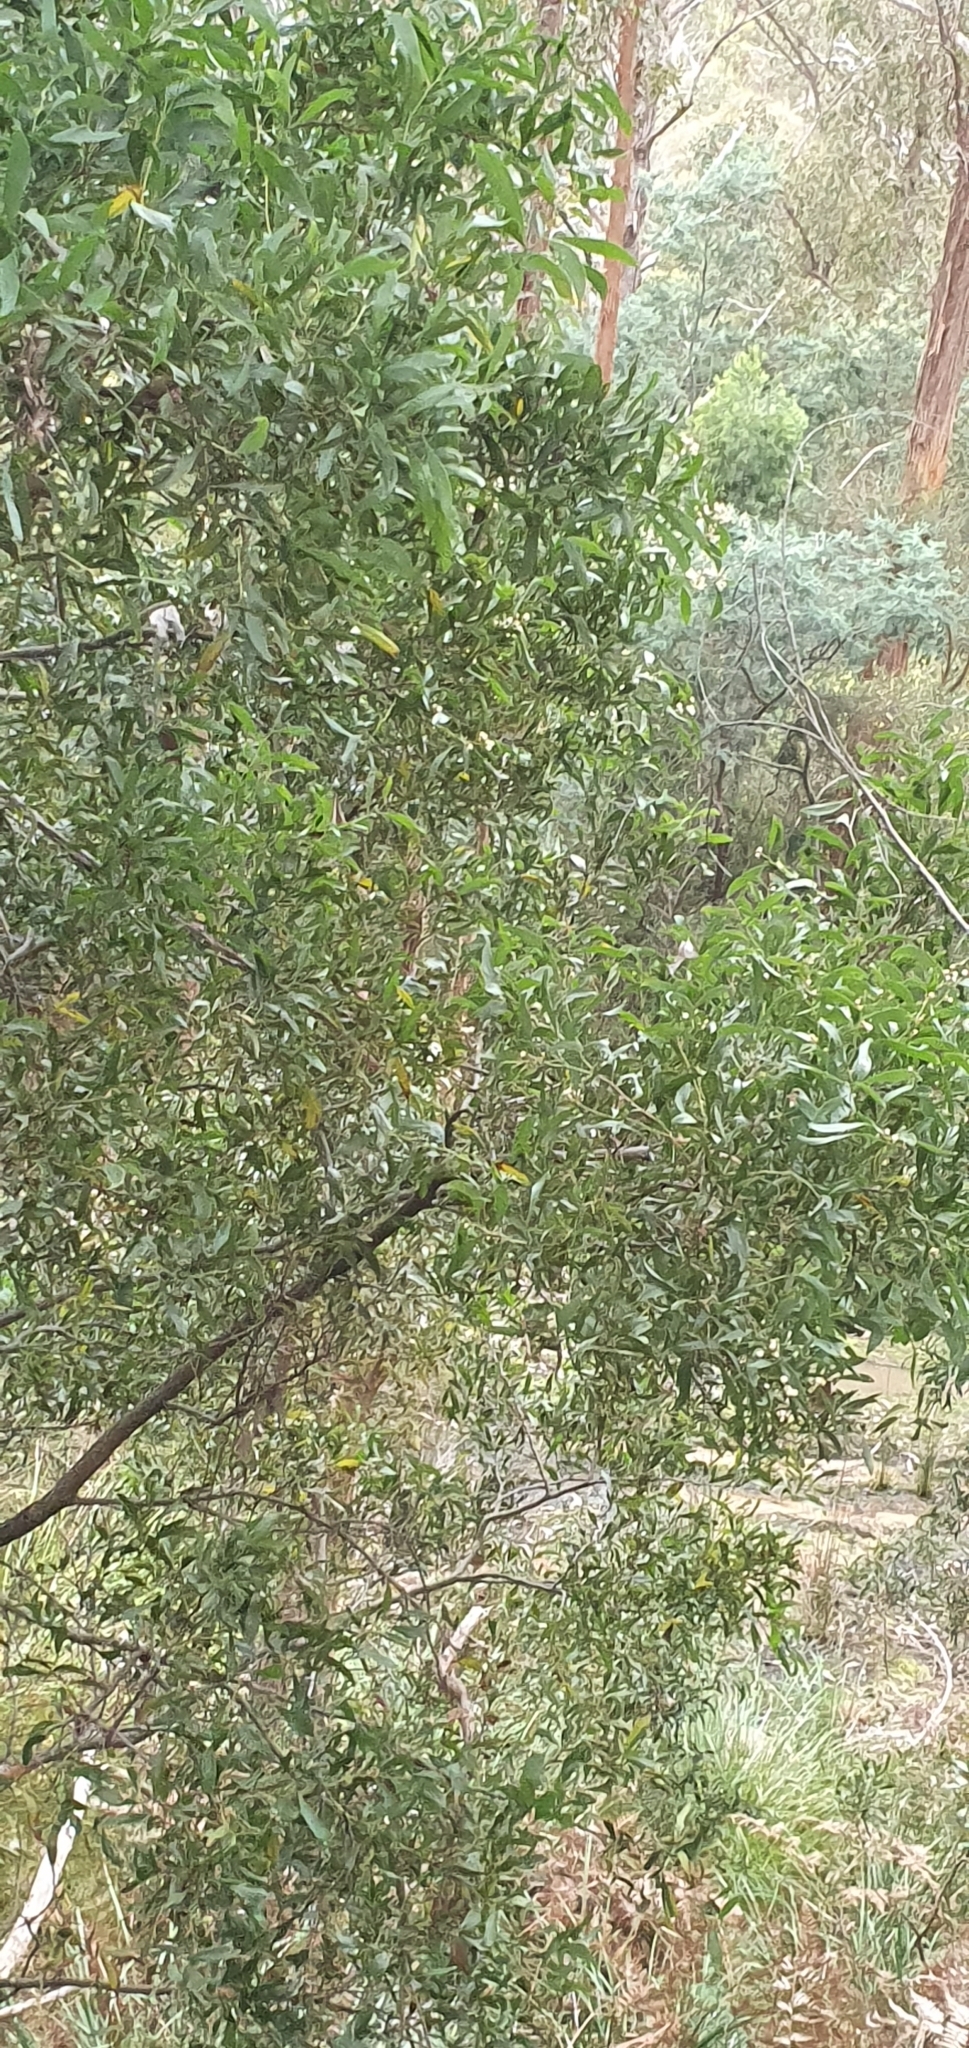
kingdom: Plantae
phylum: Tracheophyta
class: Magnoliopsida
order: Fabales
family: Fabaceae
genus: Acacia
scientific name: Acacia melanoxylon
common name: Blackwood
